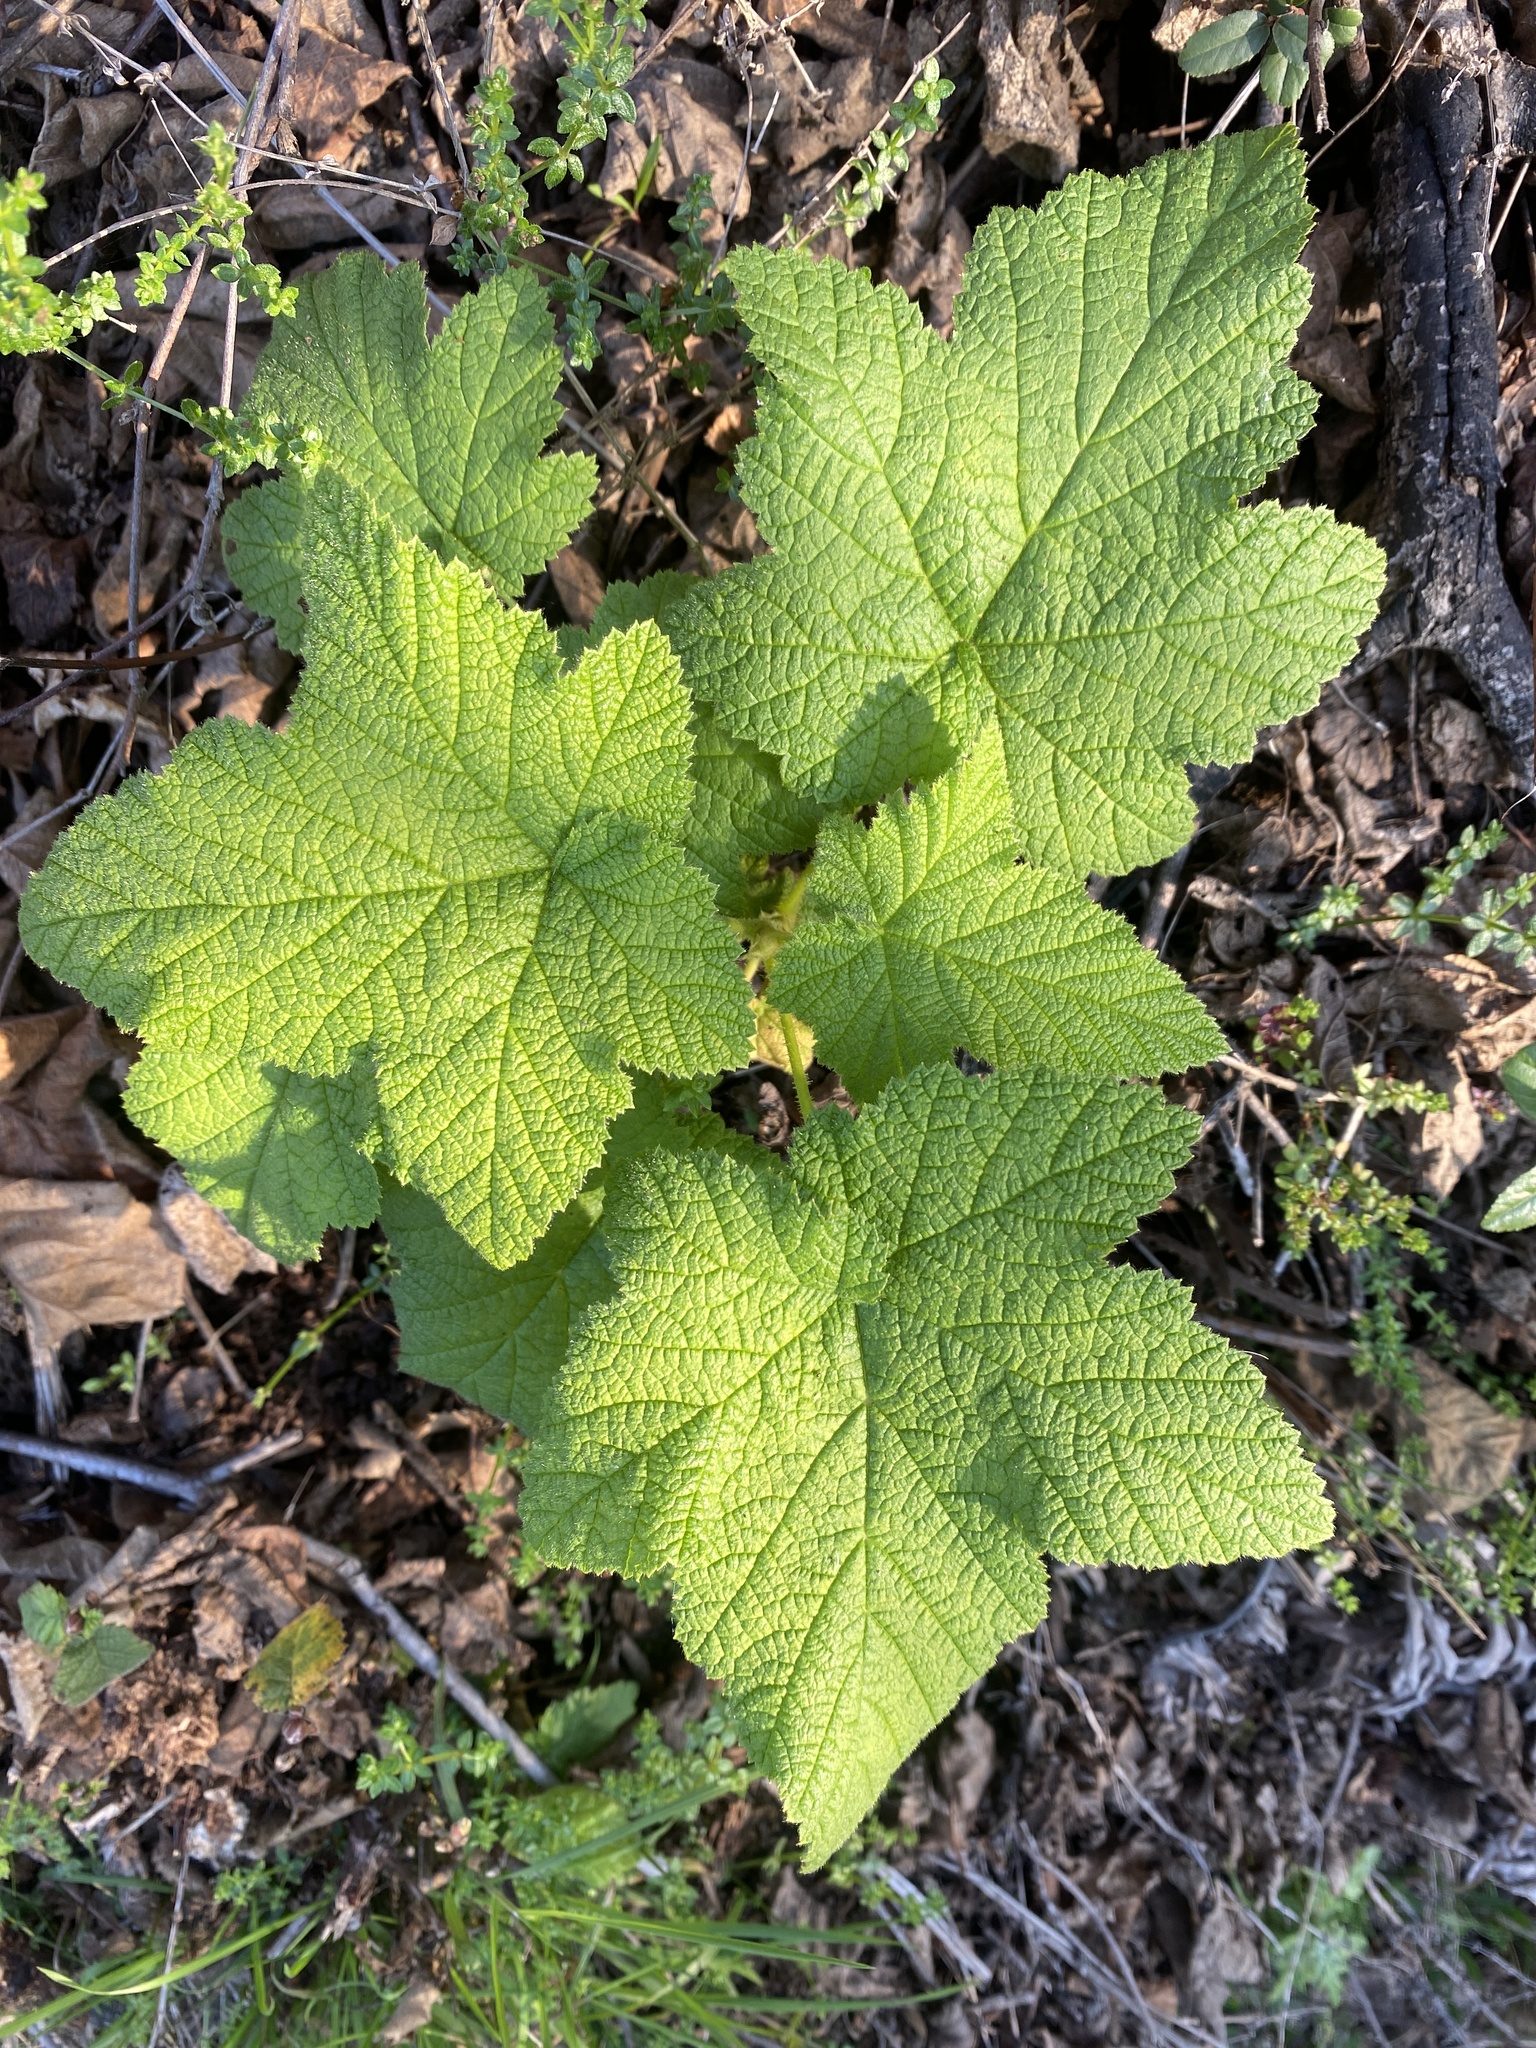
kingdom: Plantae
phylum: Tracheophyta
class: Magnoliopsida
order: Rosales
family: Rosaceae
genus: Rubus
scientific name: Rubus parviflorus
